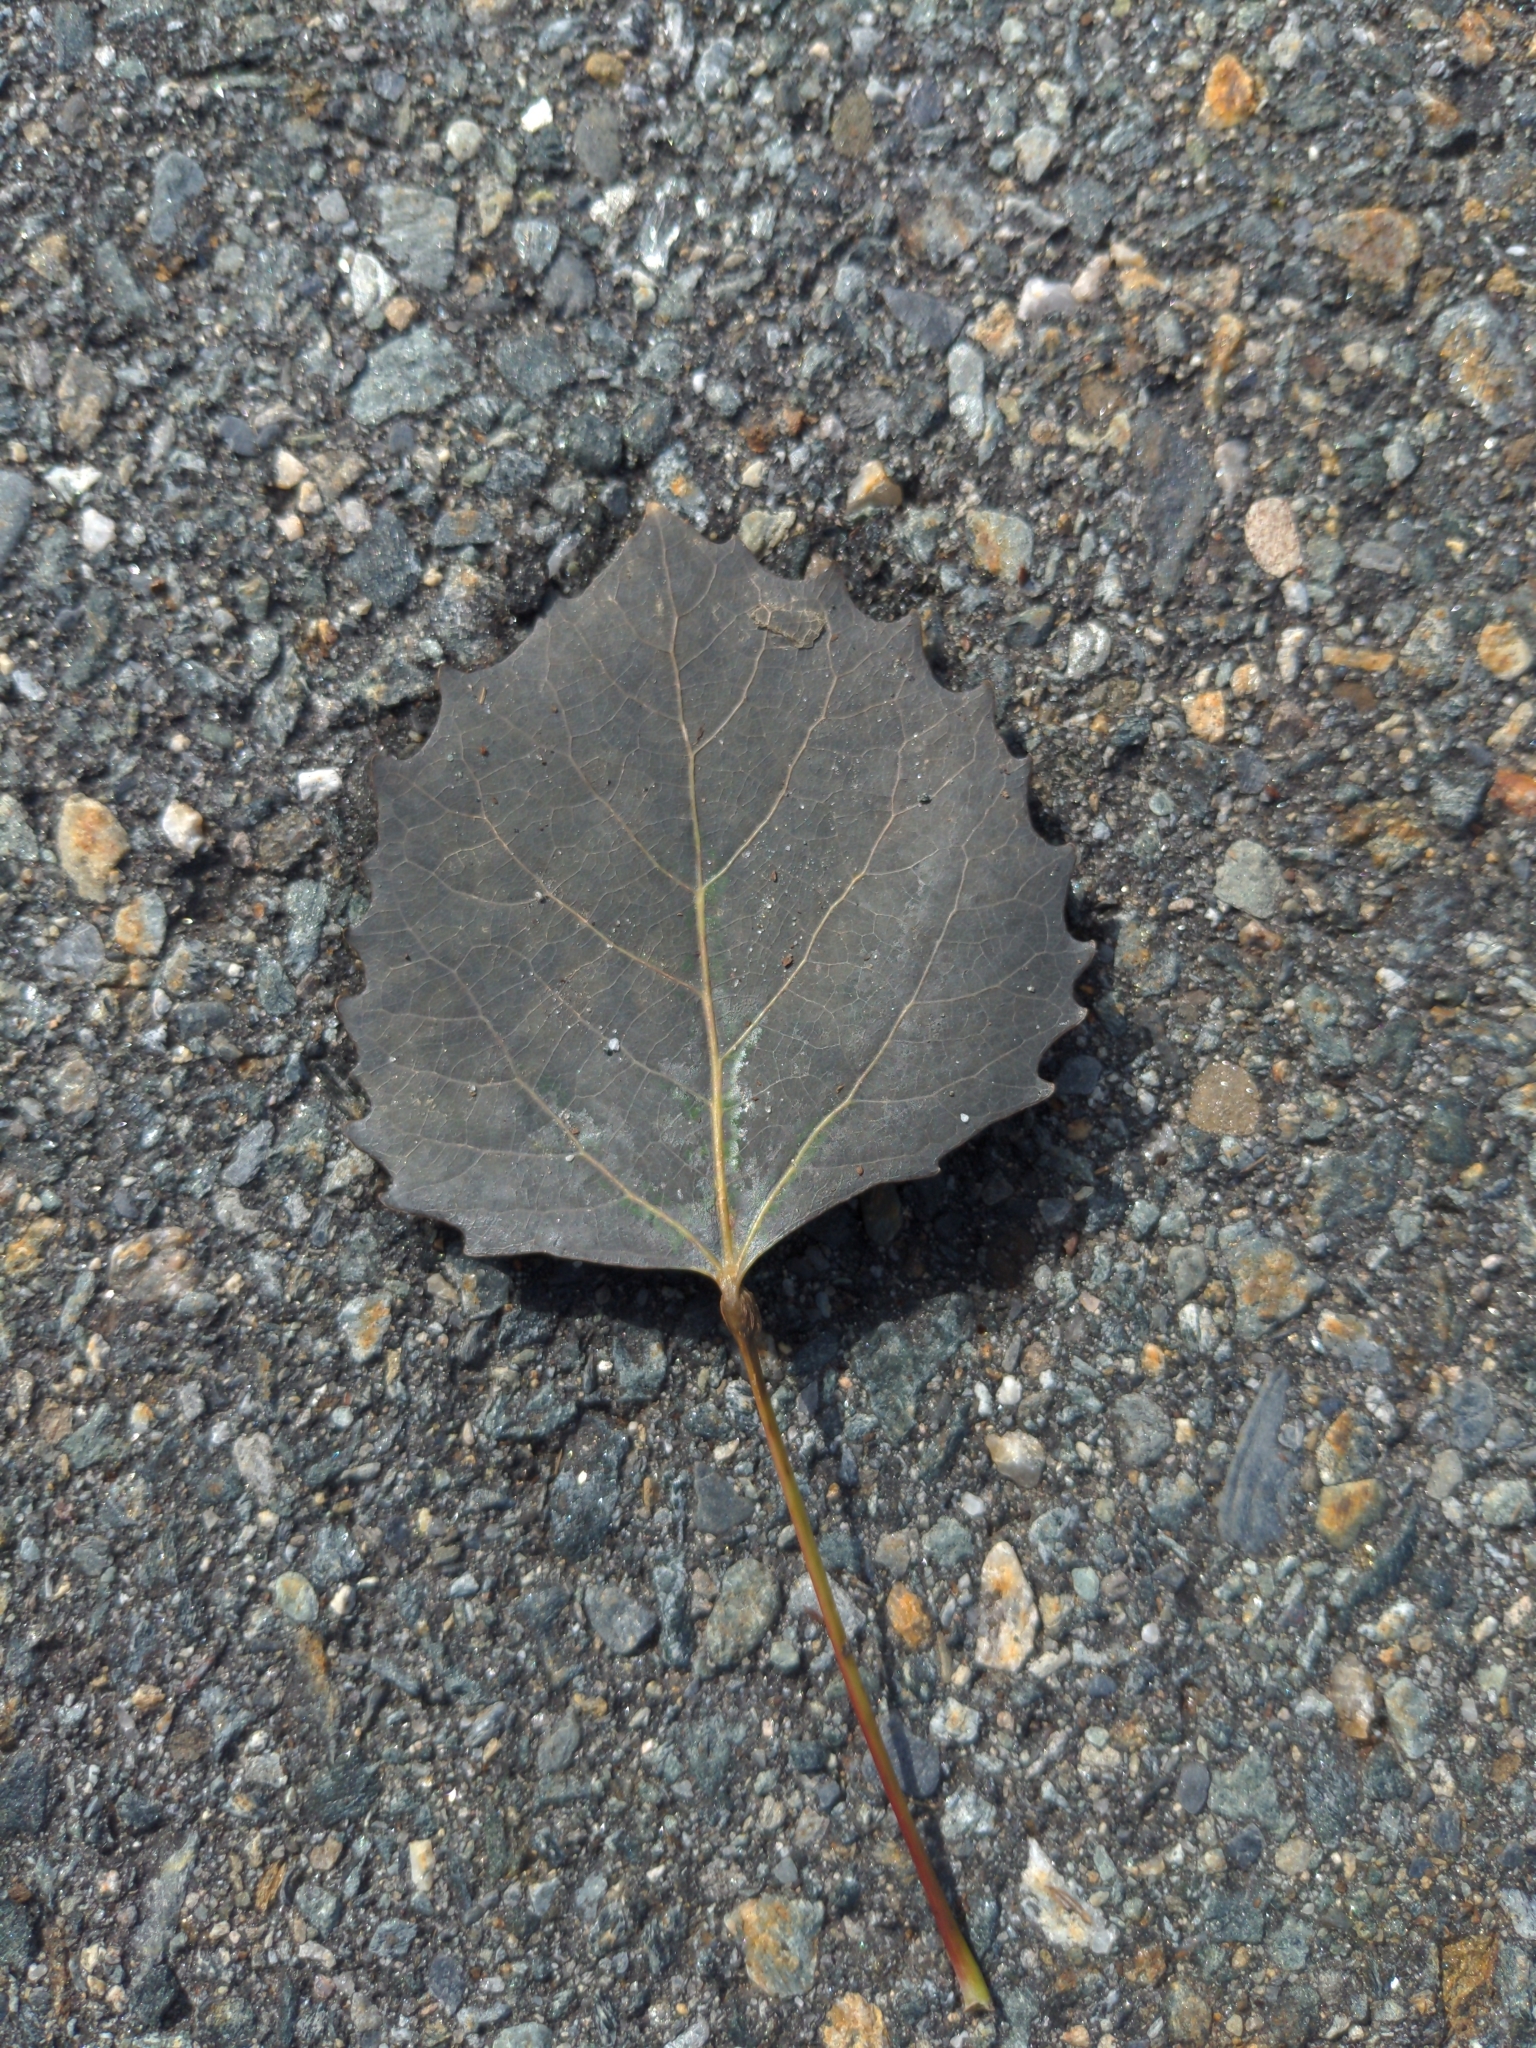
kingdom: Plantae
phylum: Tracheophyta
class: Magnoliopsida
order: Malpighiales
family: Salicaceae
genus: Populus
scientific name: Populus grandidentata
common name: Bigtooth aspen
